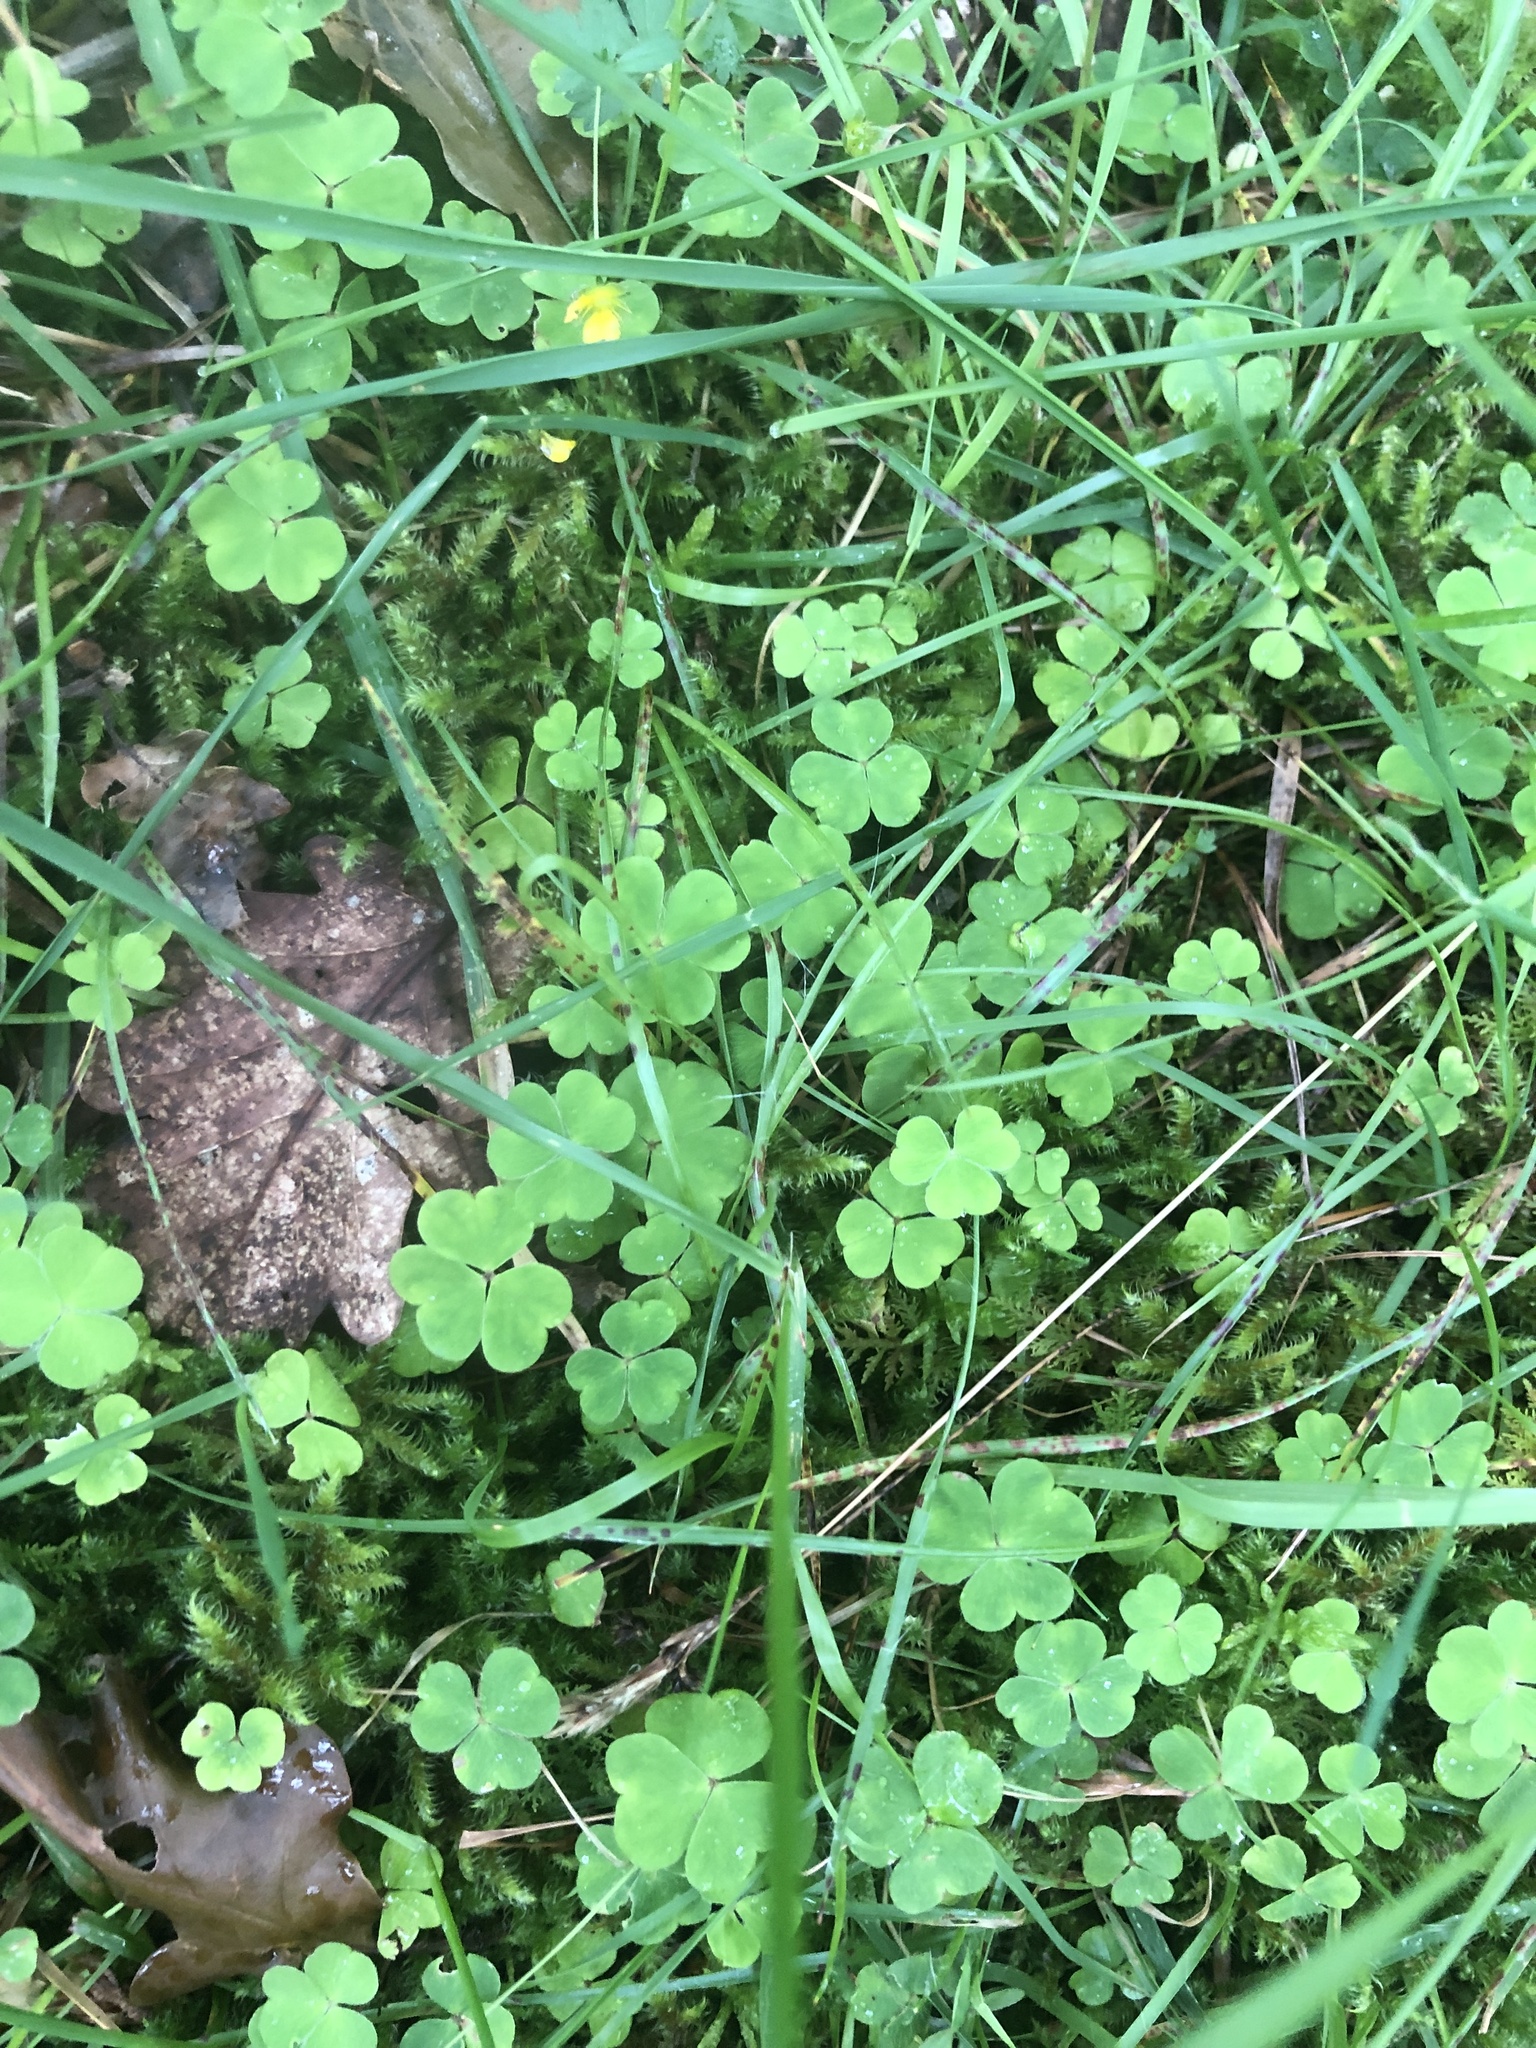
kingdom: Plantae
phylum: Tracheophyta
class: Magnoliopsida
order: Oxalidales
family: Oxalidaceae
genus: Oxalis
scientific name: Oxalis acetosella
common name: Wood-sorrel
